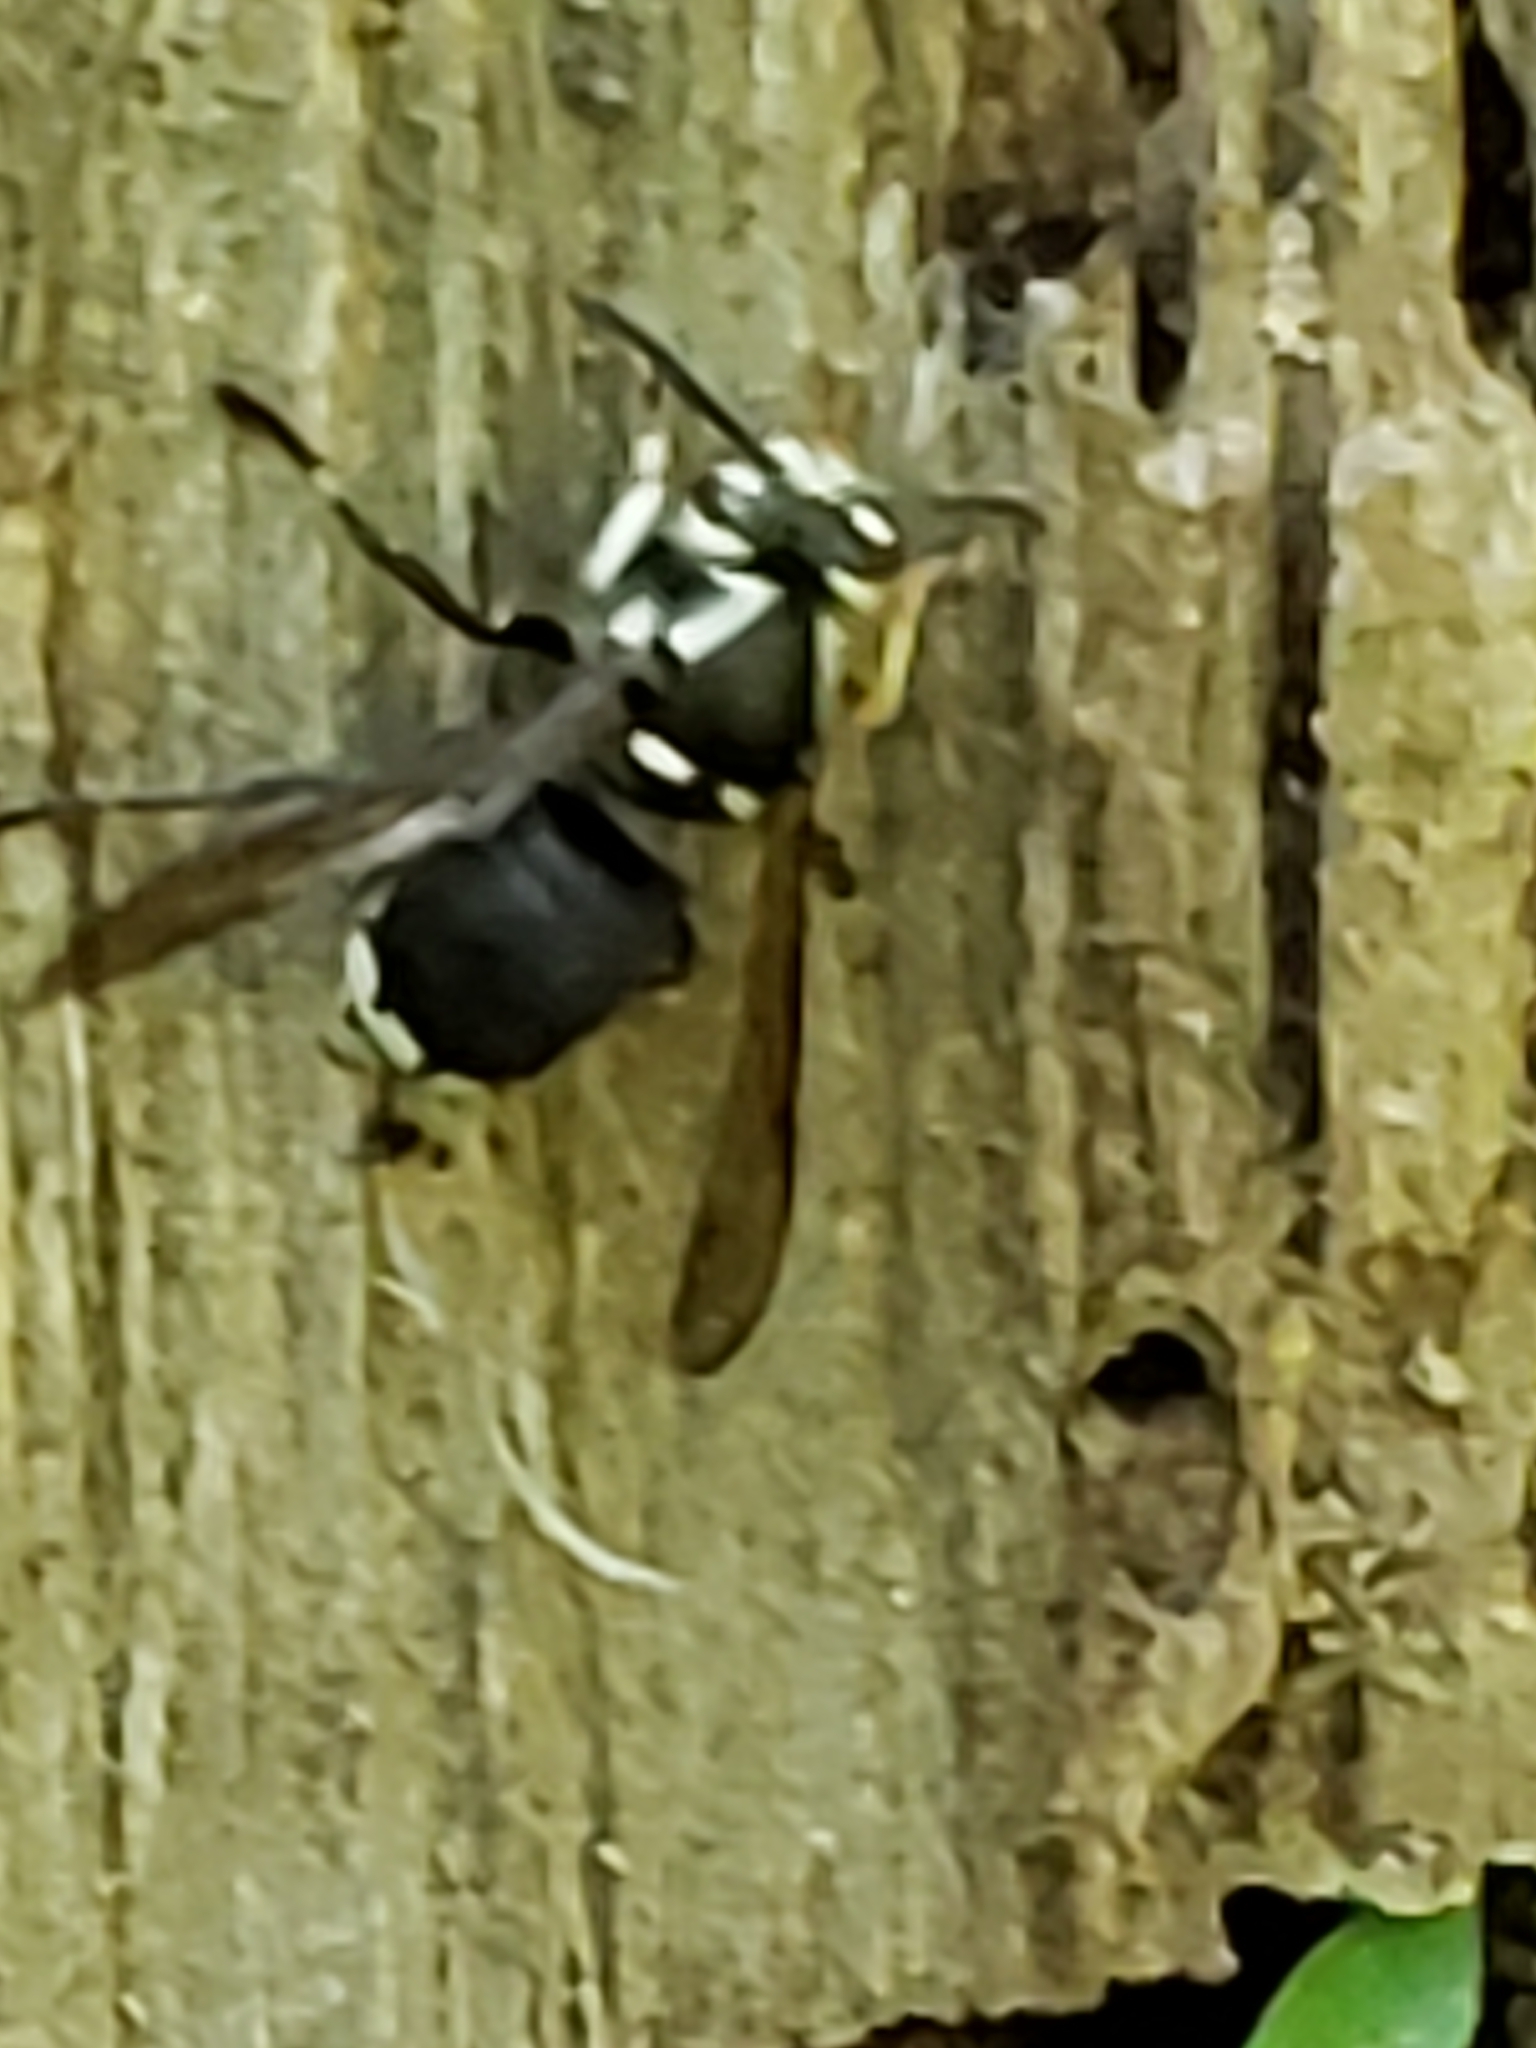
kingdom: Animalia
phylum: Arthropoda
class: Insecta
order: Hymenoptera
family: Vespidae
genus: Dolichovespula
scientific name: Dolichovespula maculata
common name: Bald-faced hornet
